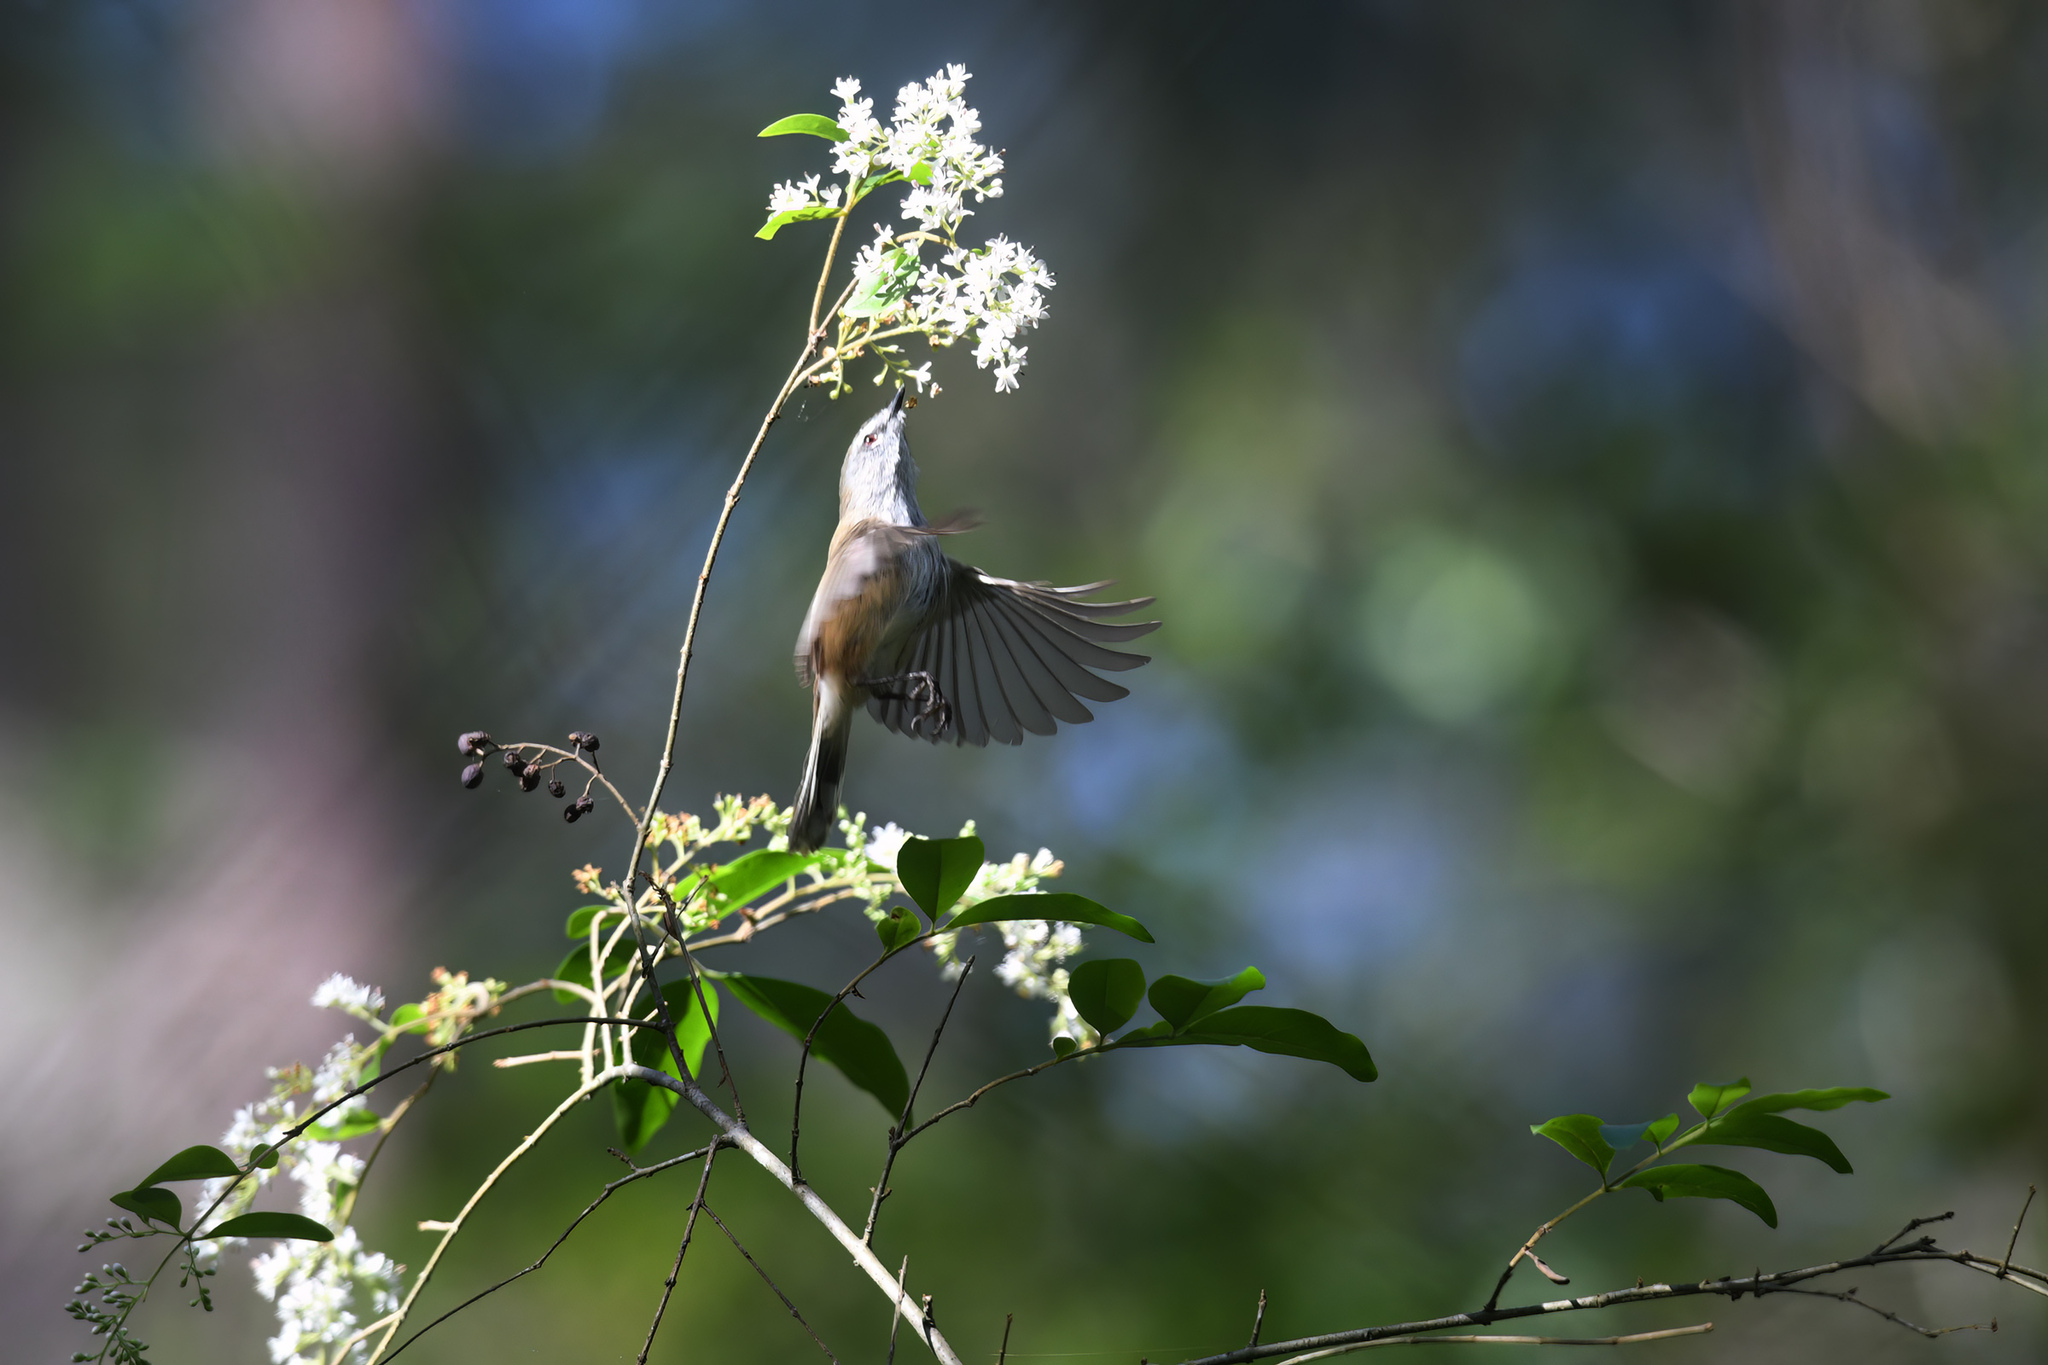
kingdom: Animalia
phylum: Chordata
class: Aves
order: Passeriformes
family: Acanthizidae
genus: Gerygone
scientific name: Gerygone mouki
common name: Brown gerygone
